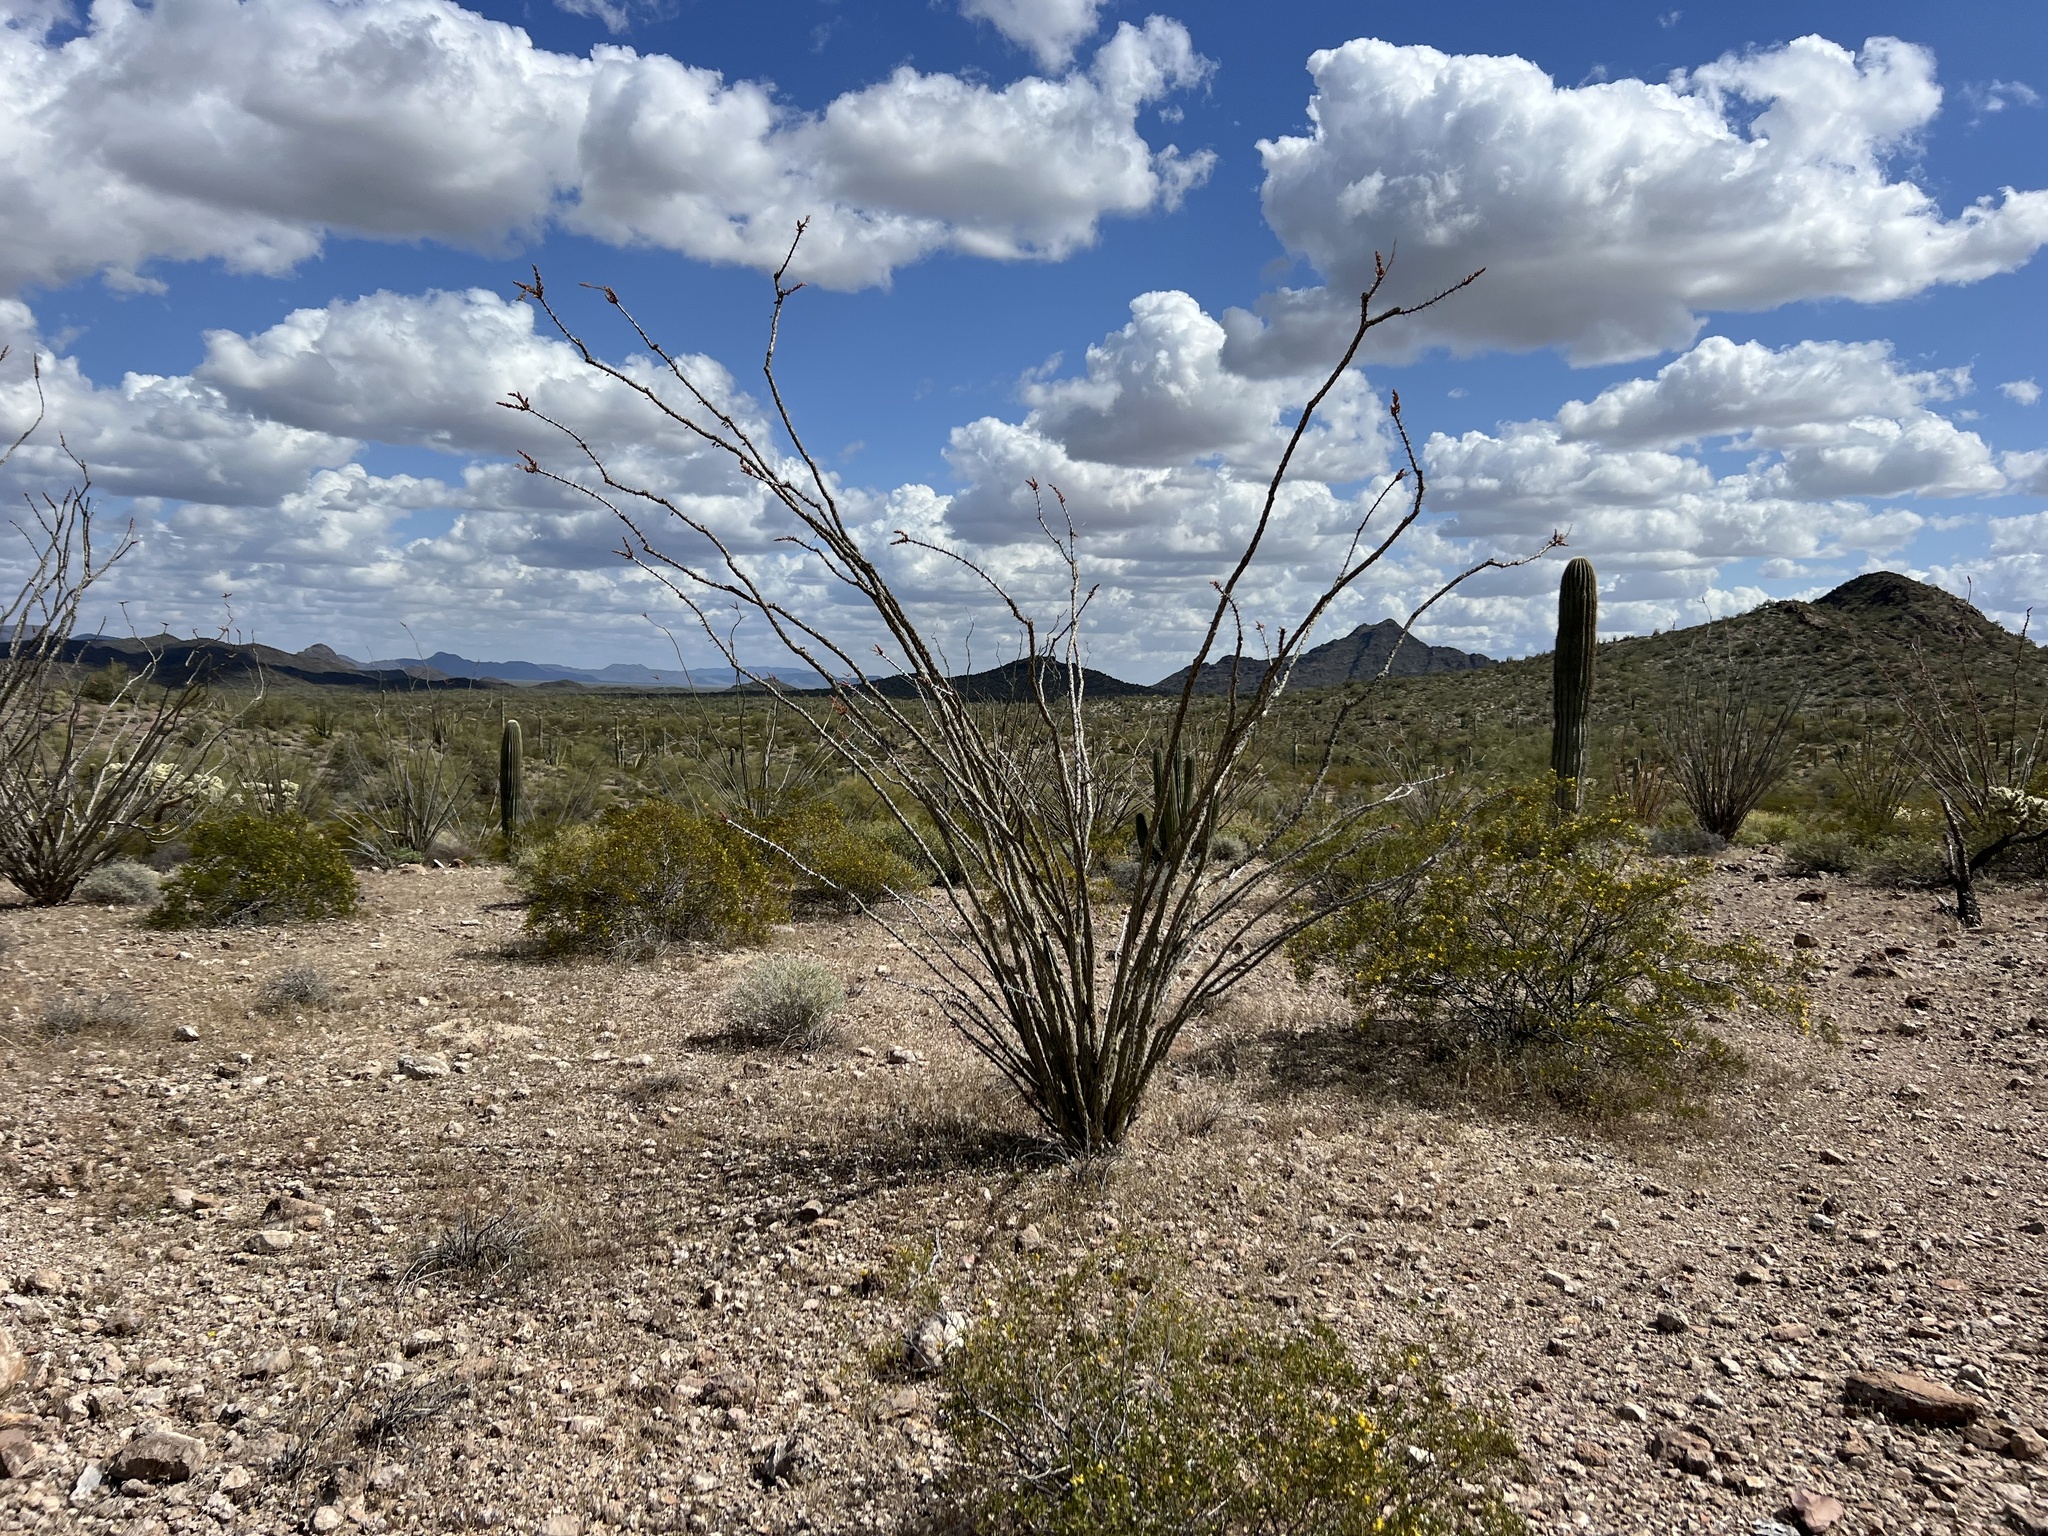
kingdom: Plantae
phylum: Tracheophyta
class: Magnoliopsida
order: Ericales
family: Fouquieriaceae
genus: Fouquieria
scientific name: Fouquieria splendens
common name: Vine-cactus
